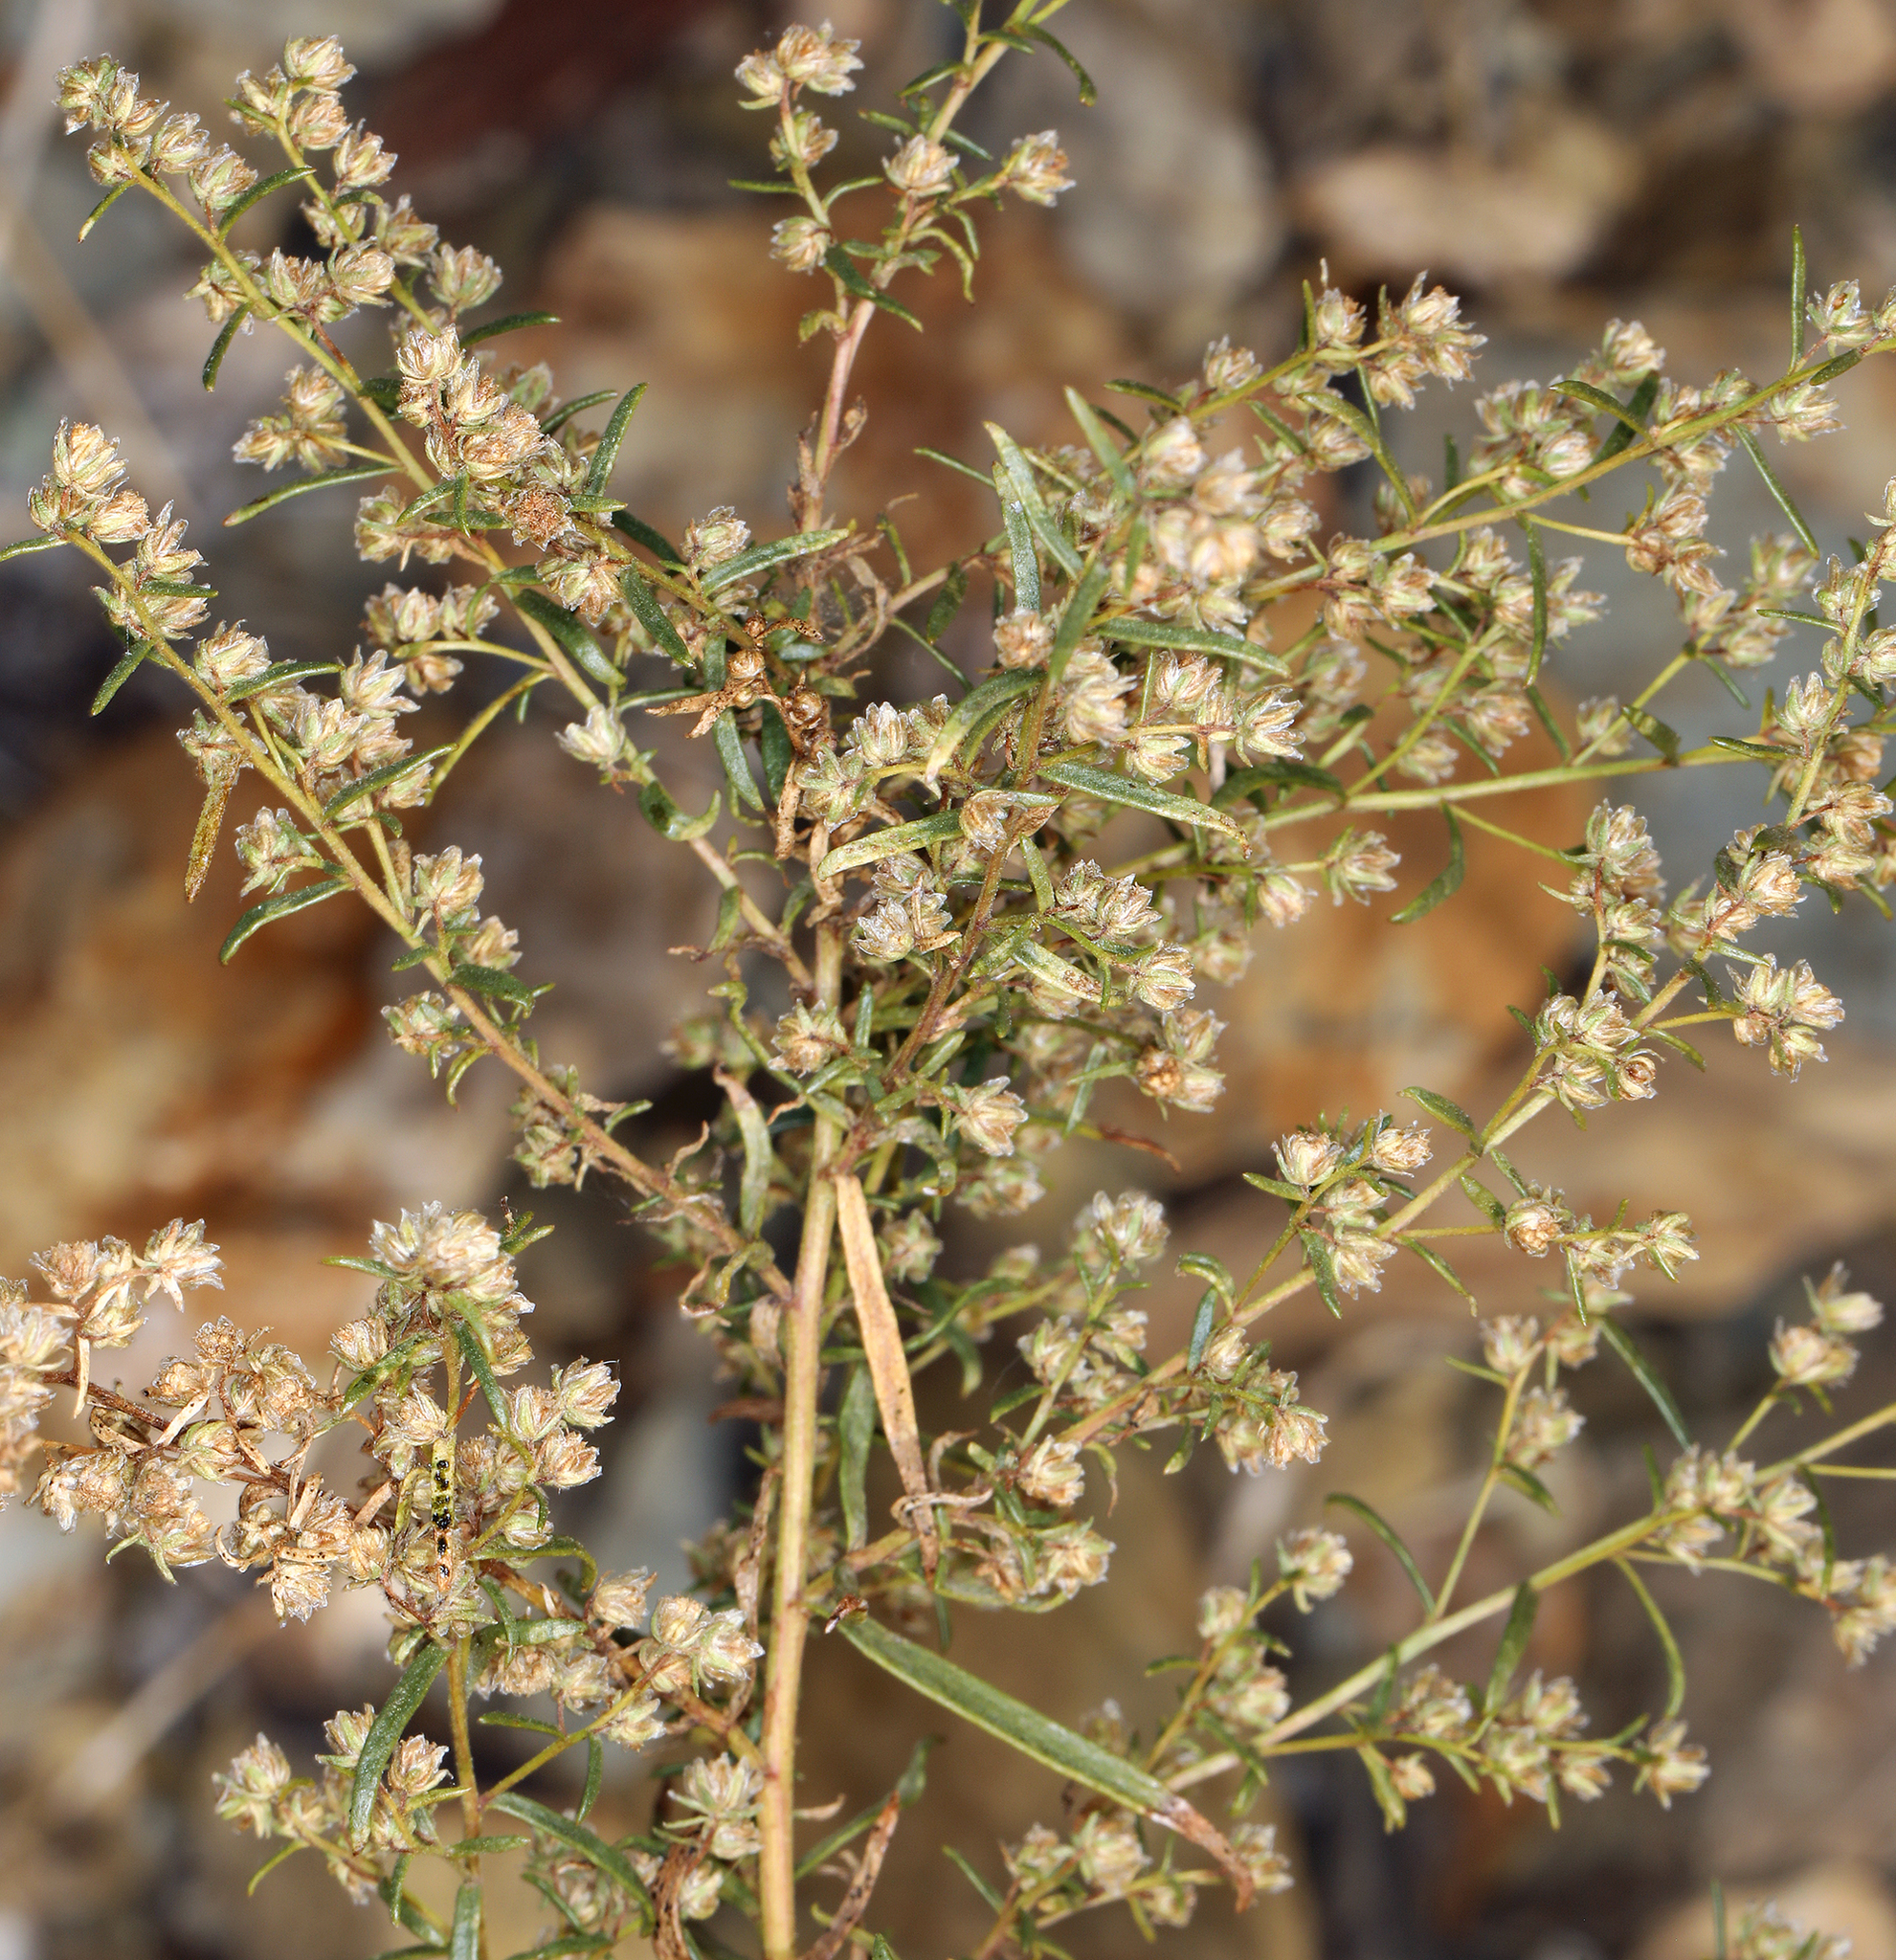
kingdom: Plantae
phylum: Tracheophyta
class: Magnoliopsida
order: Asterales
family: Asteraceae
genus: Artemisia
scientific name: Artemisia dracunculus
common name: Tarragon
